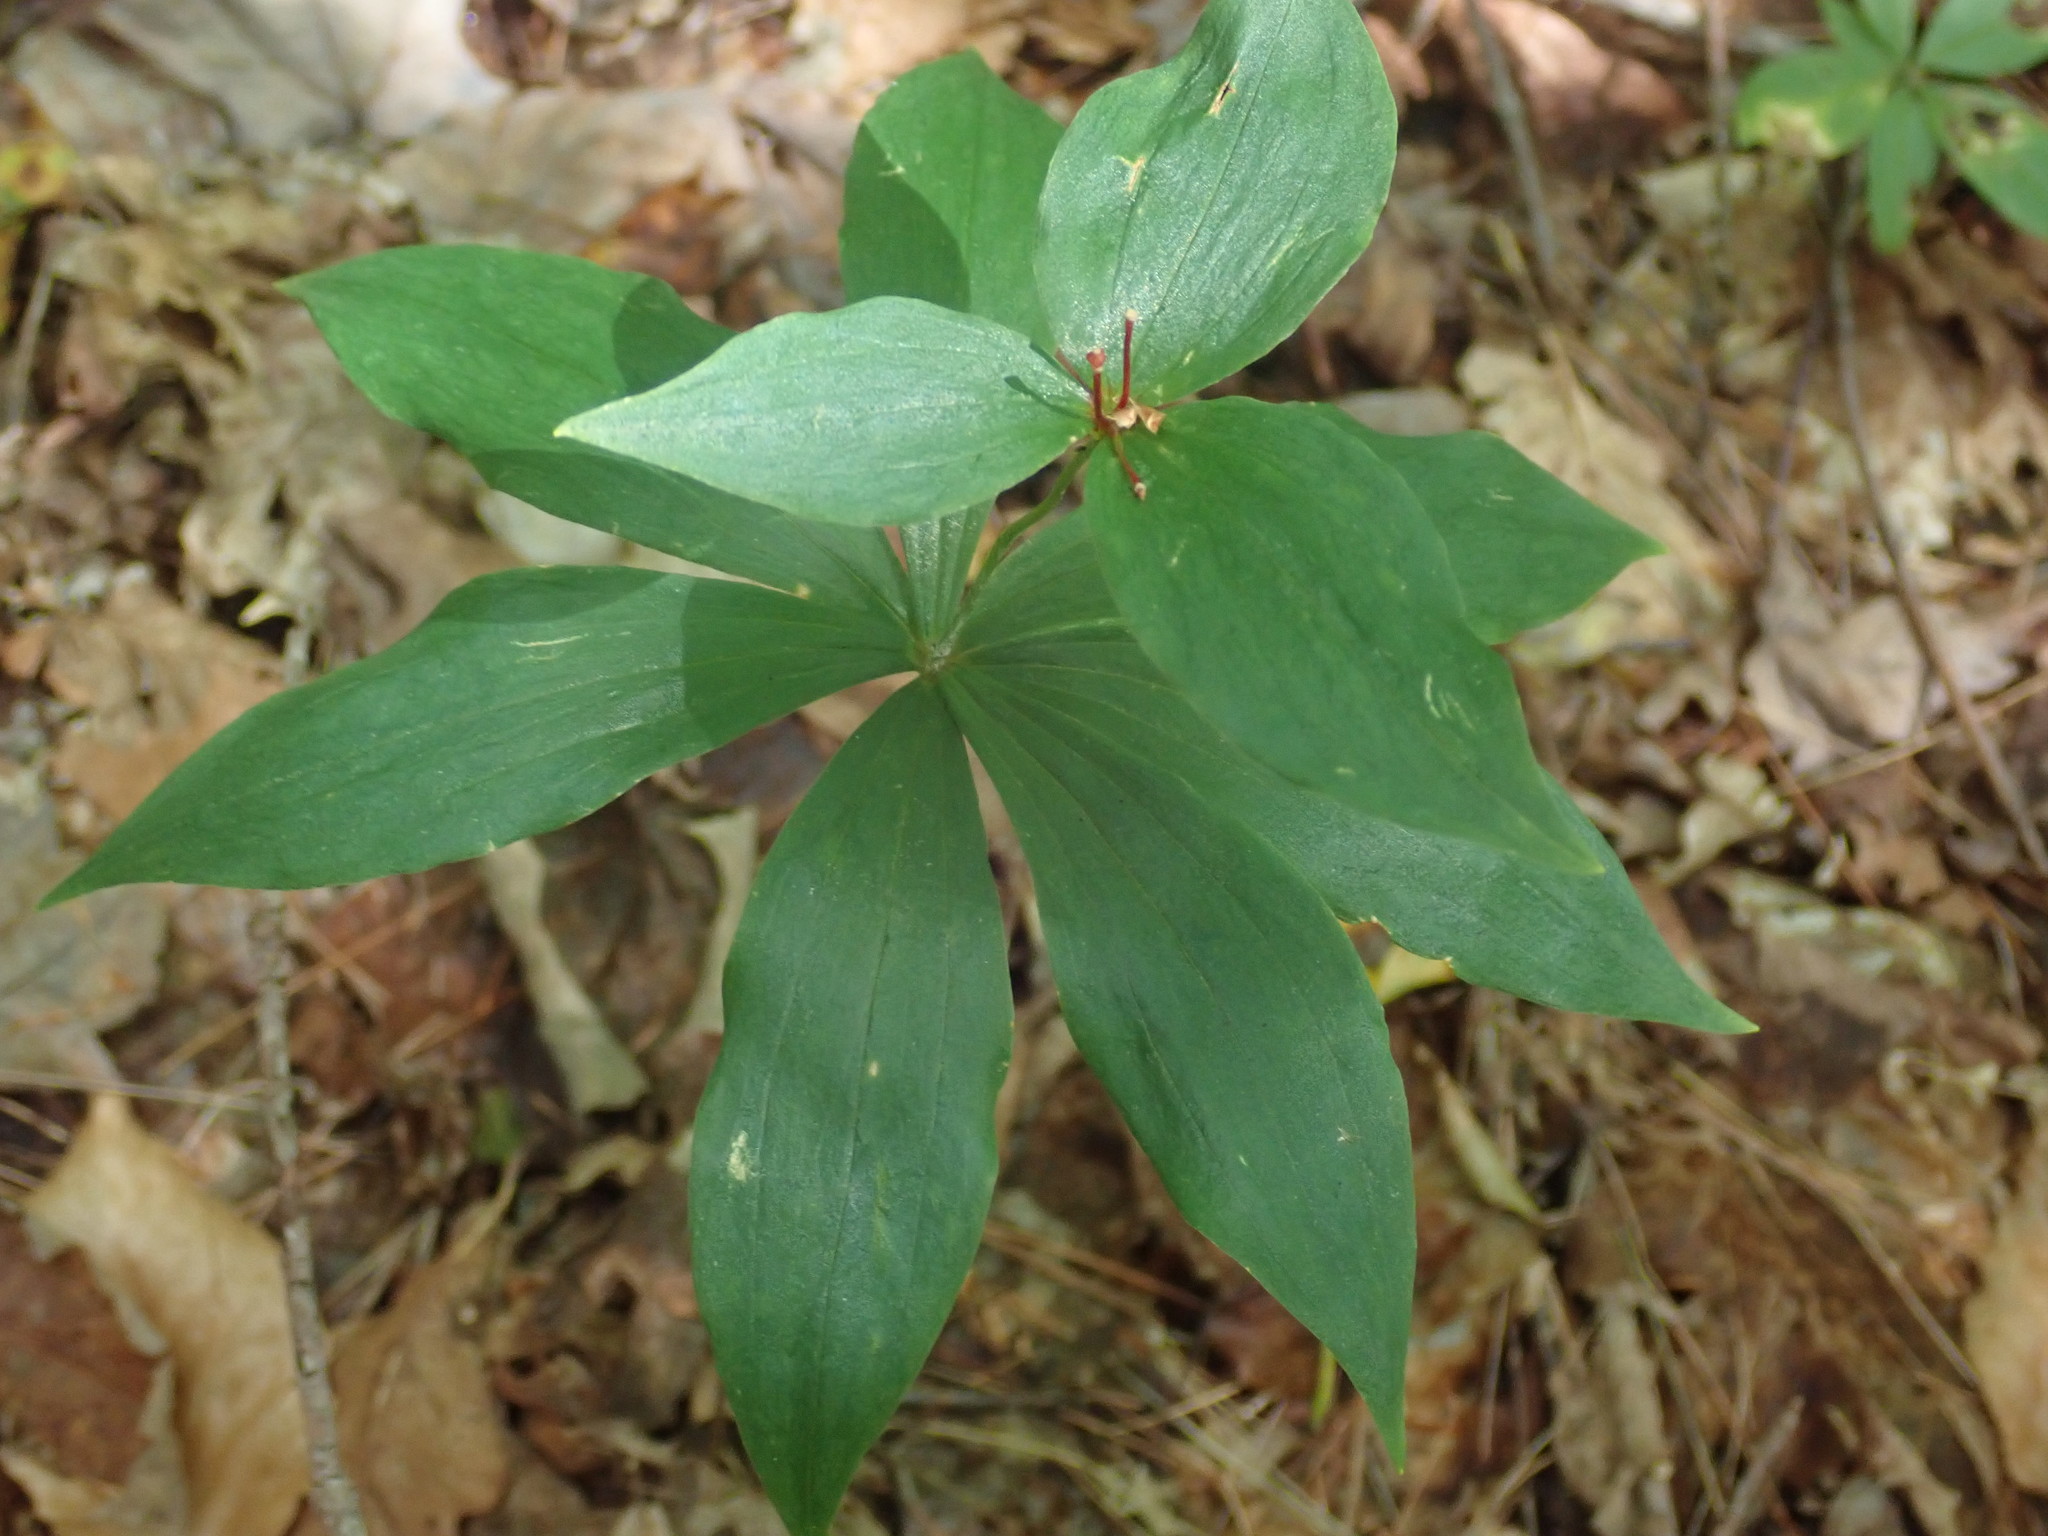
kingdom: Plantae
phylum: Tracheophyta
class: Liliopsida
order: Liliales
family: Liliaceae
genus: Medeola
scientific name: Medeola virginiana
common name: Indian cucumber-root
